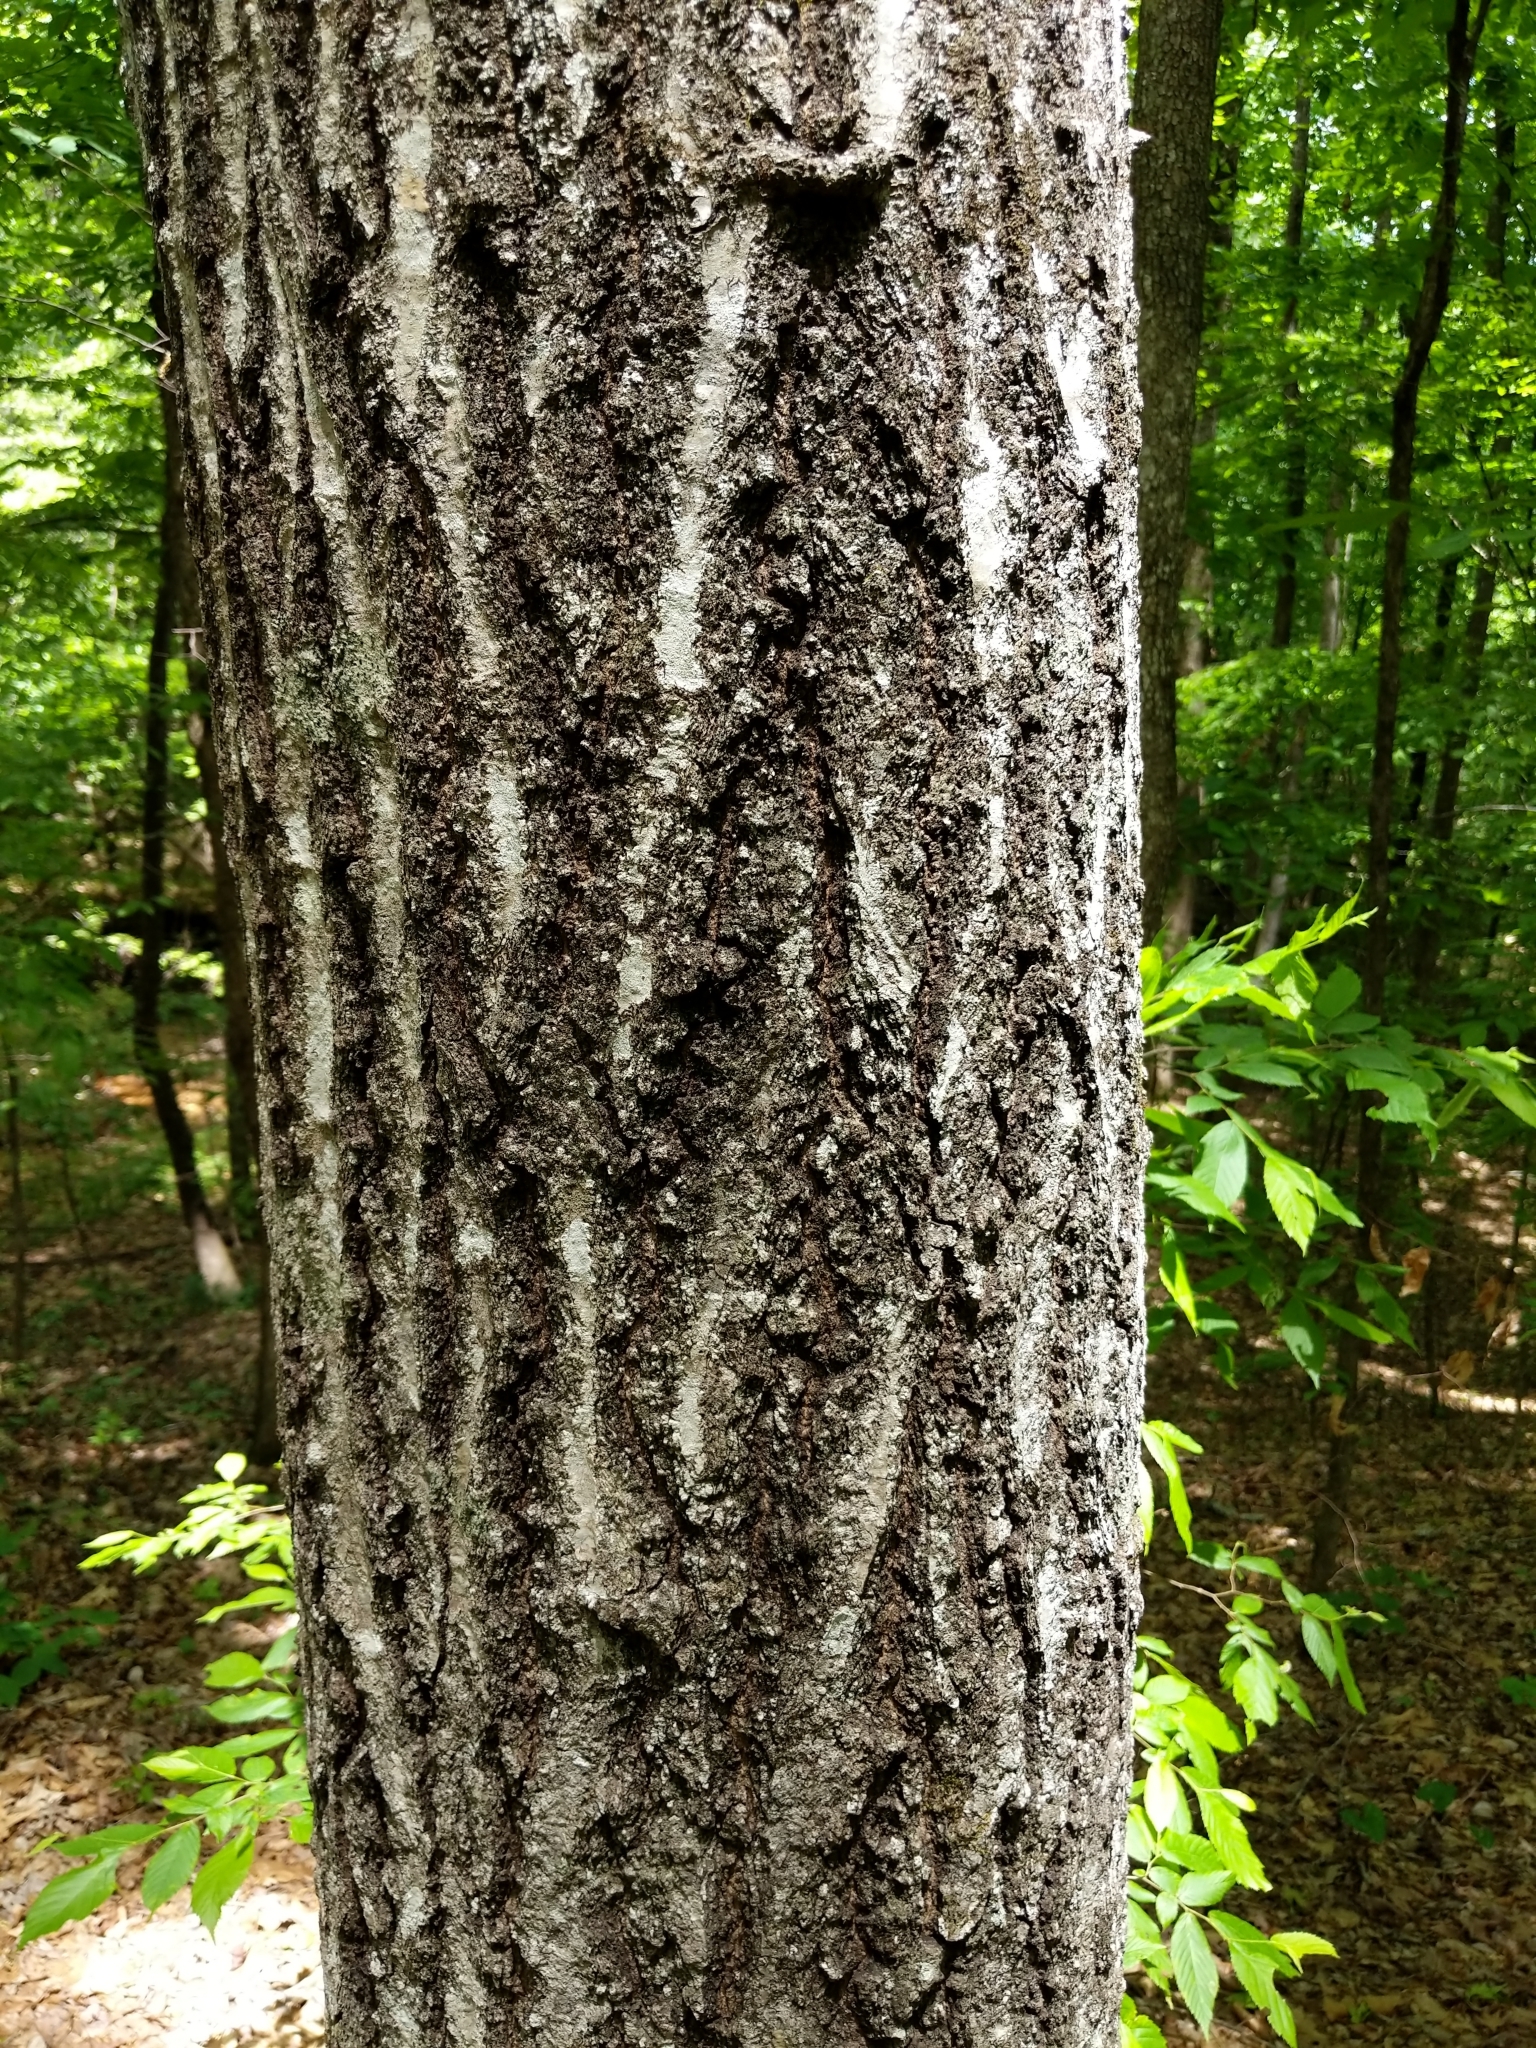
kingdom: Plantae
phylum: Tracheophyta
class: Magnoliopsida
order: Fagales
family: Fagaceae
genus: Quercus
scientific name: Quercus rubra
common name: Red oak
